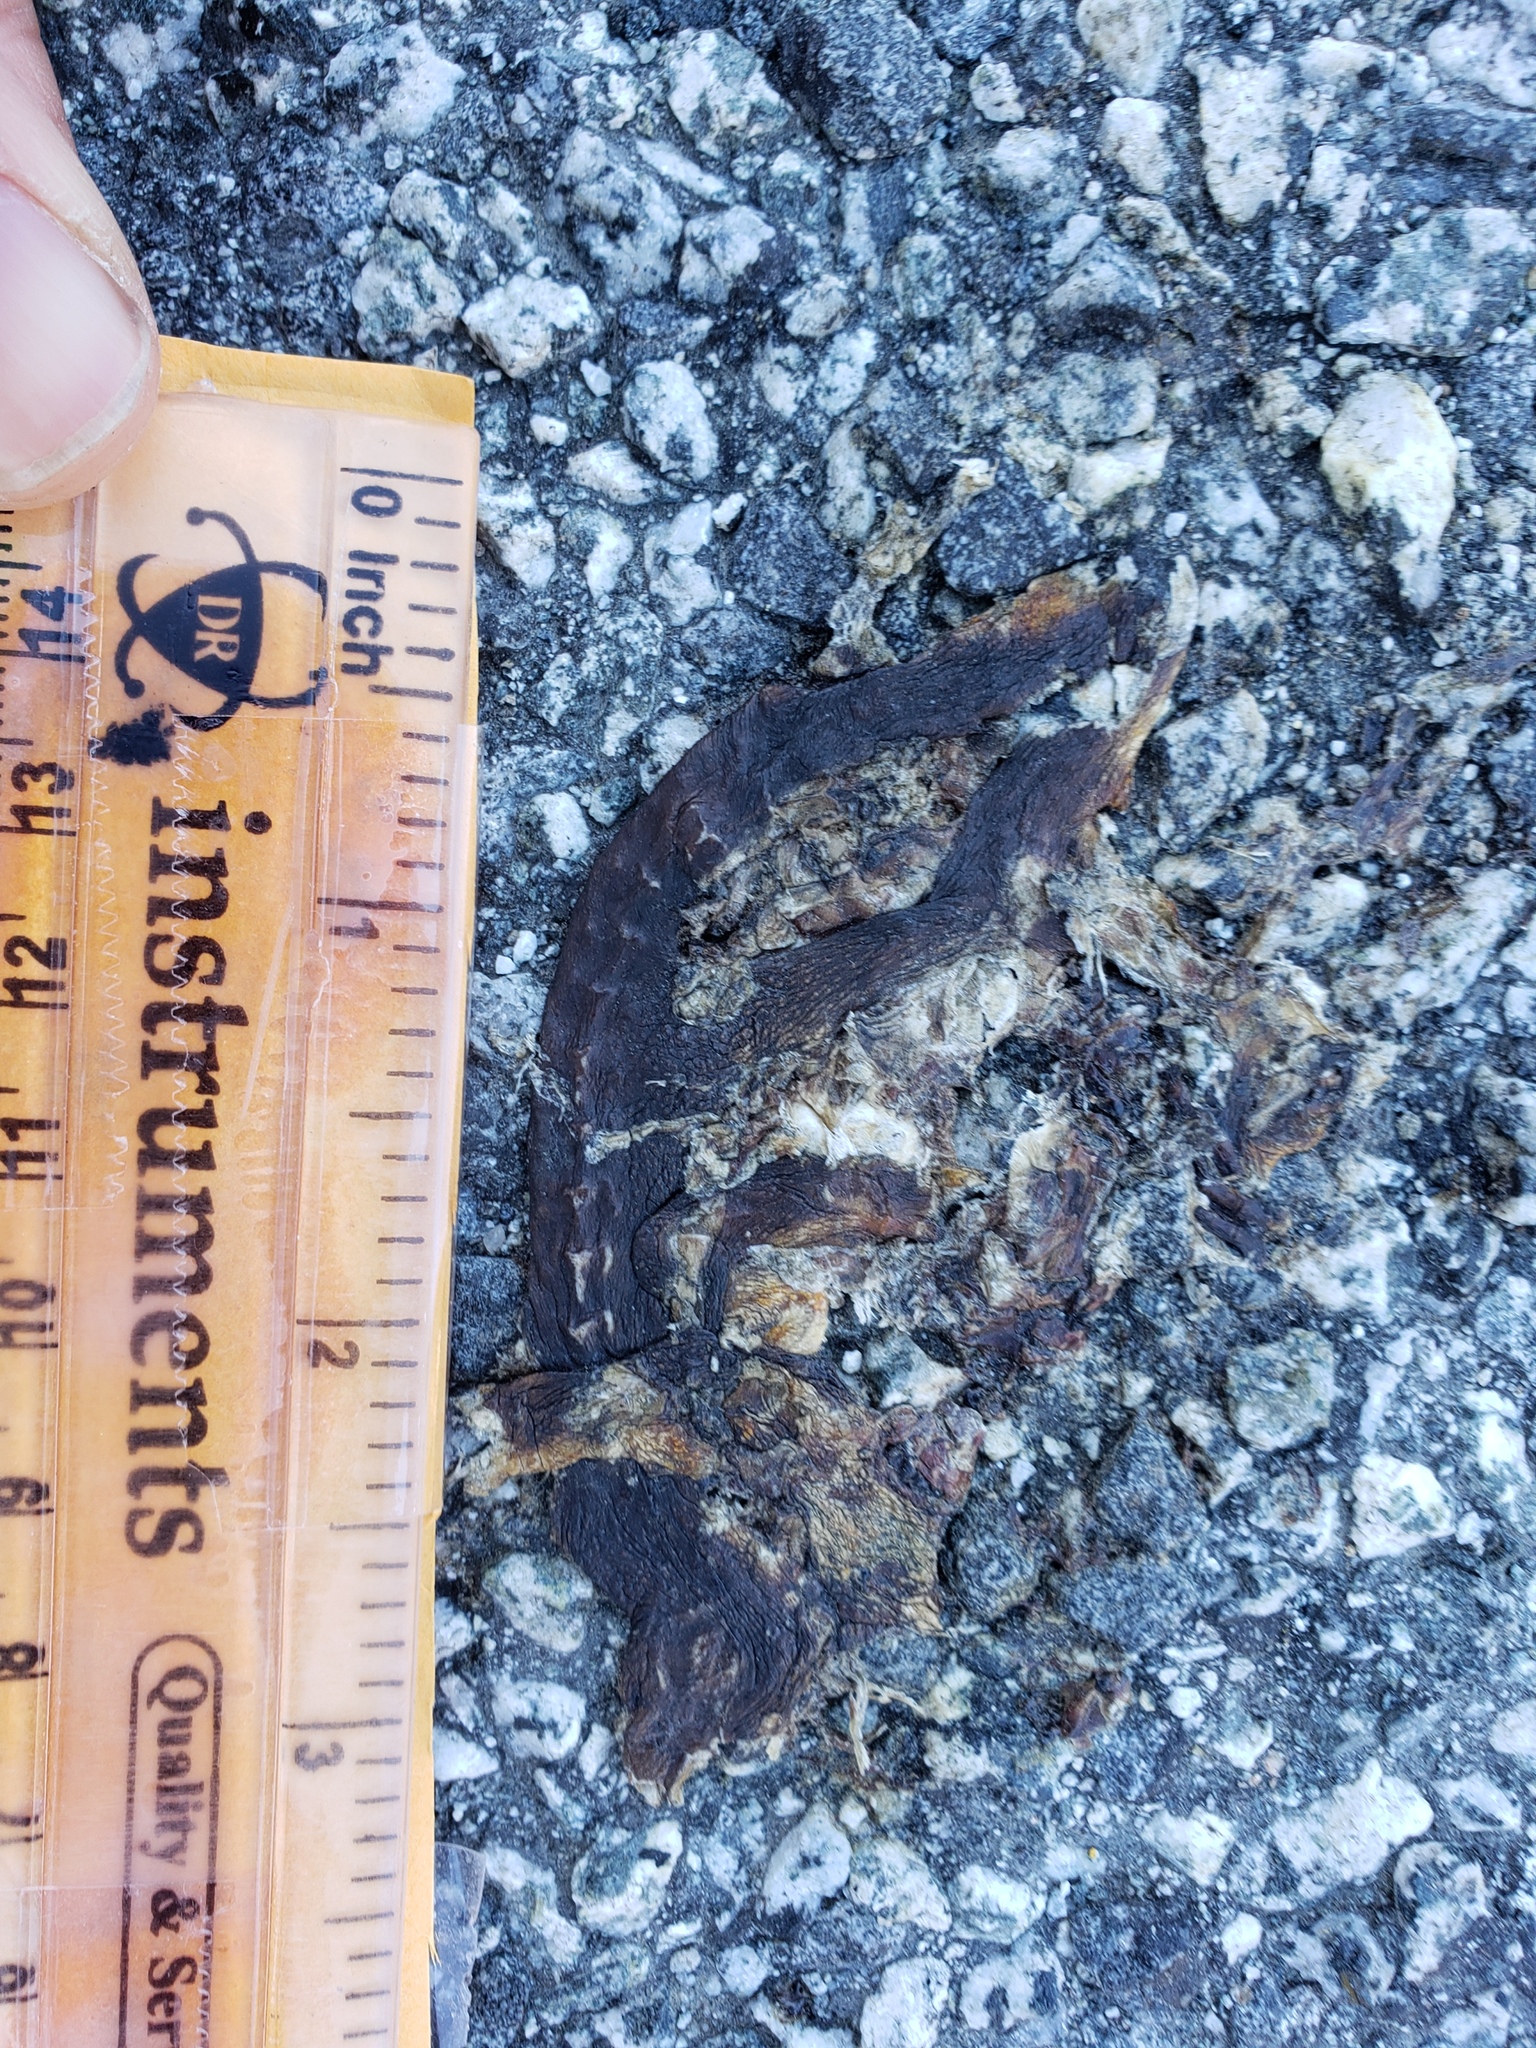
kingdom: Animalia
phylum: Chordata
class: Amphibia
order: Caudata
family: Salamandridae
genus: Taricha
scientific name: Taricha
